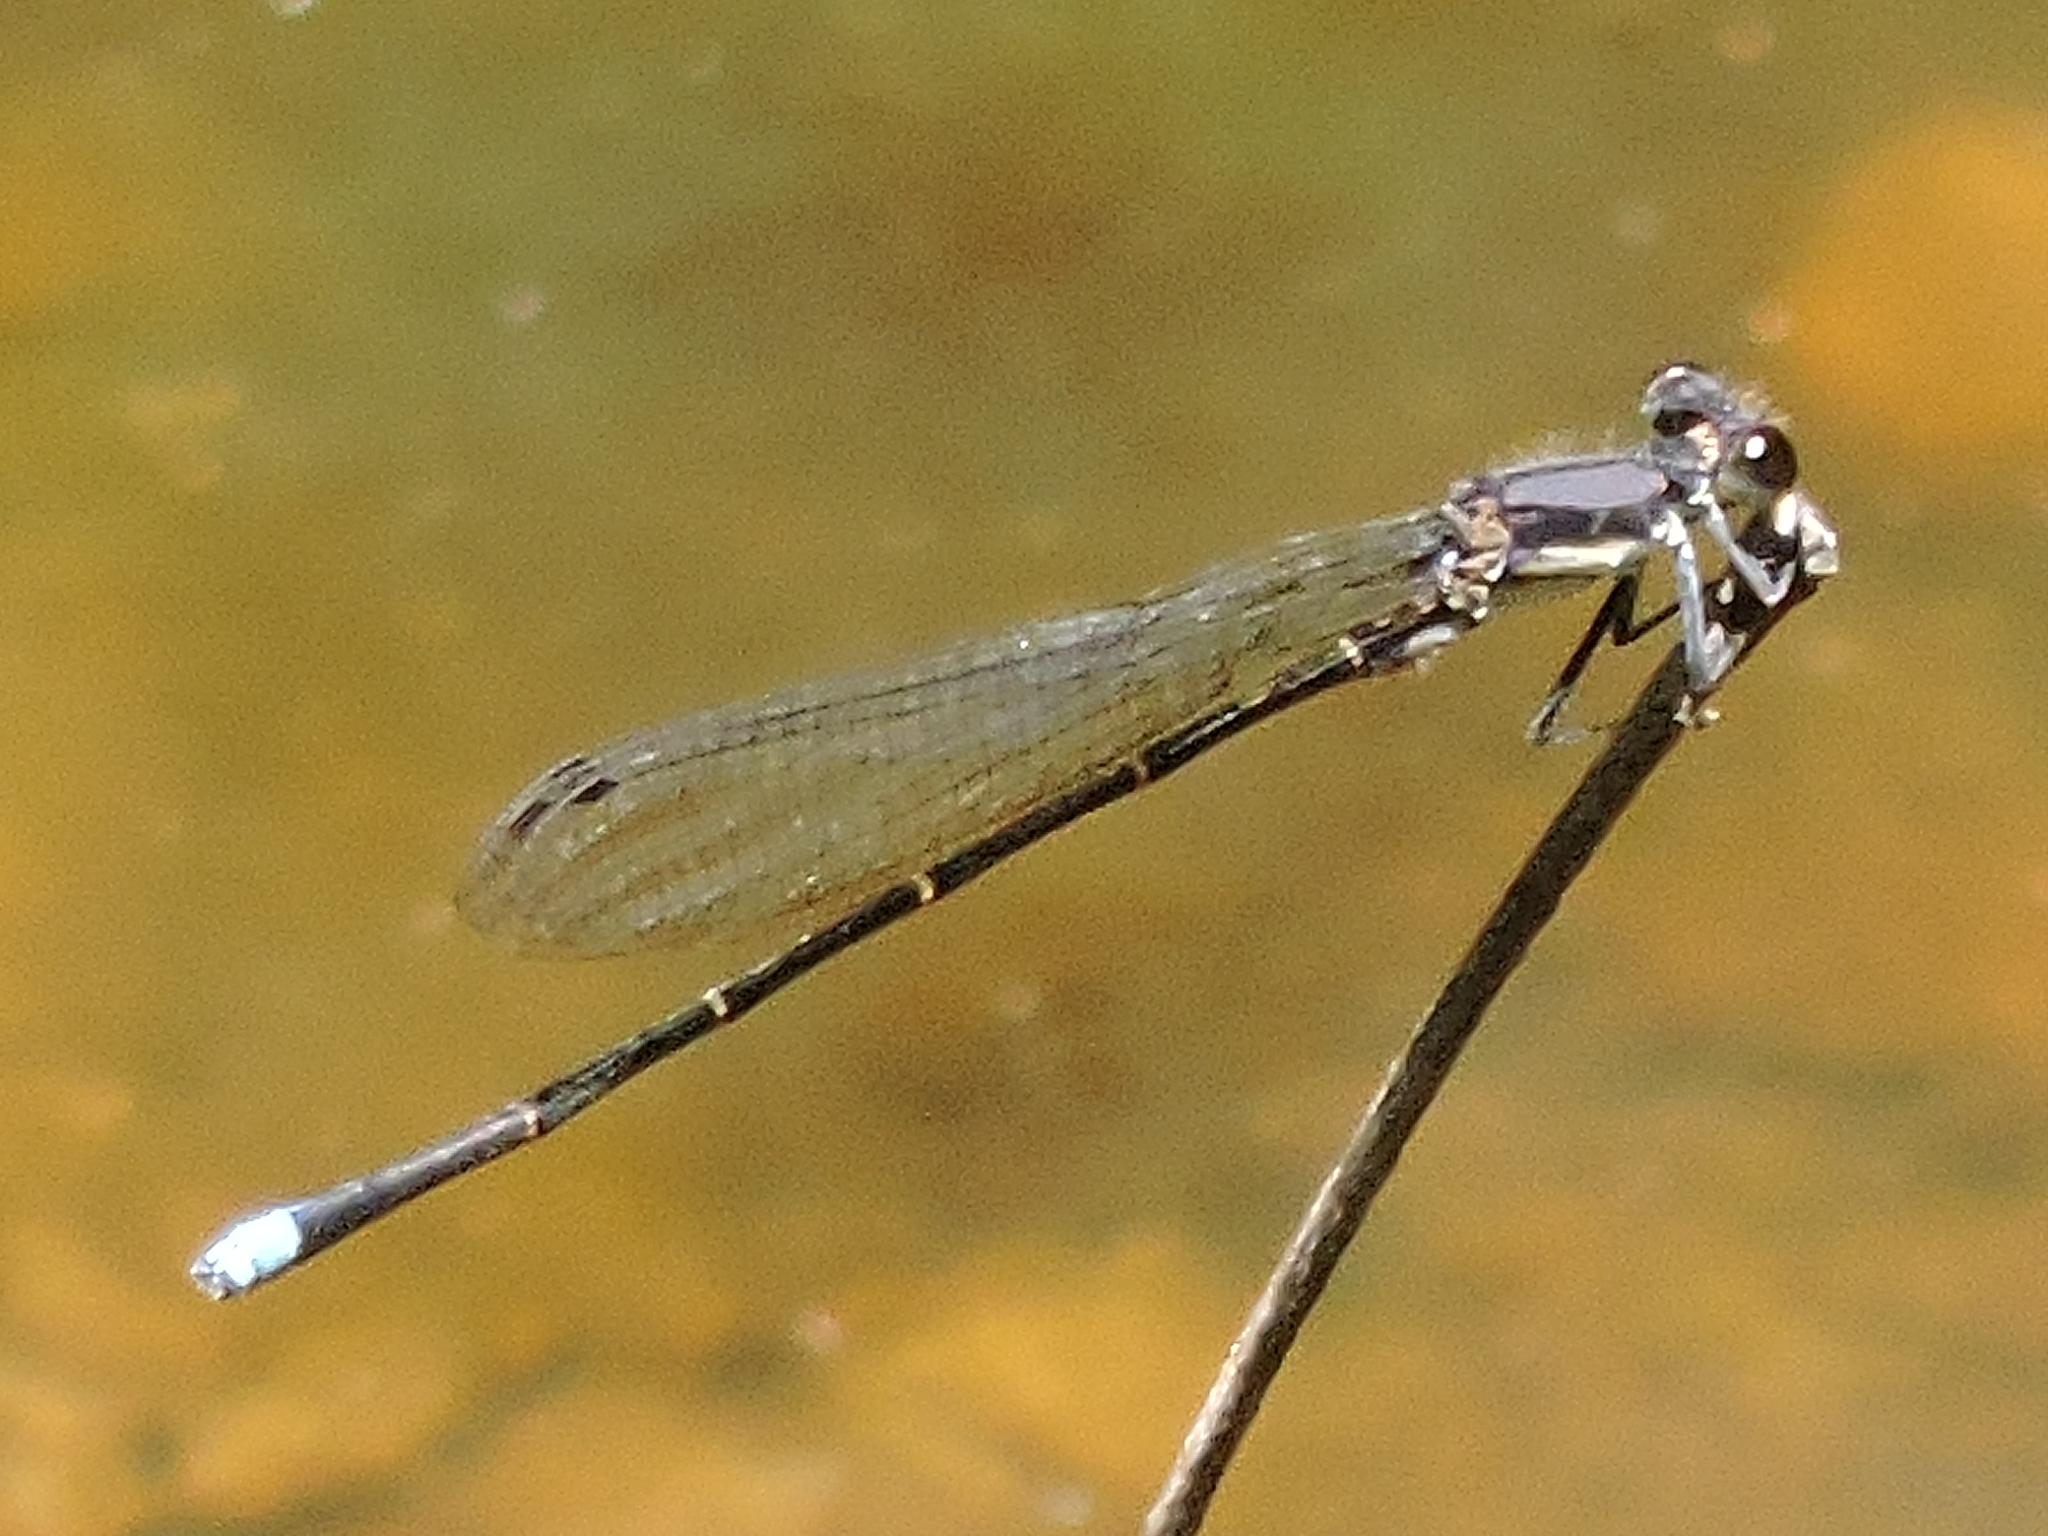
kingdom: Animalia
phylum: Arthropoda
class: Insecta
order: Odonata
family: Coenagrionidae
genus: Argia
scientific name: Argia tibialis
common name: Blue-tipped dancer
